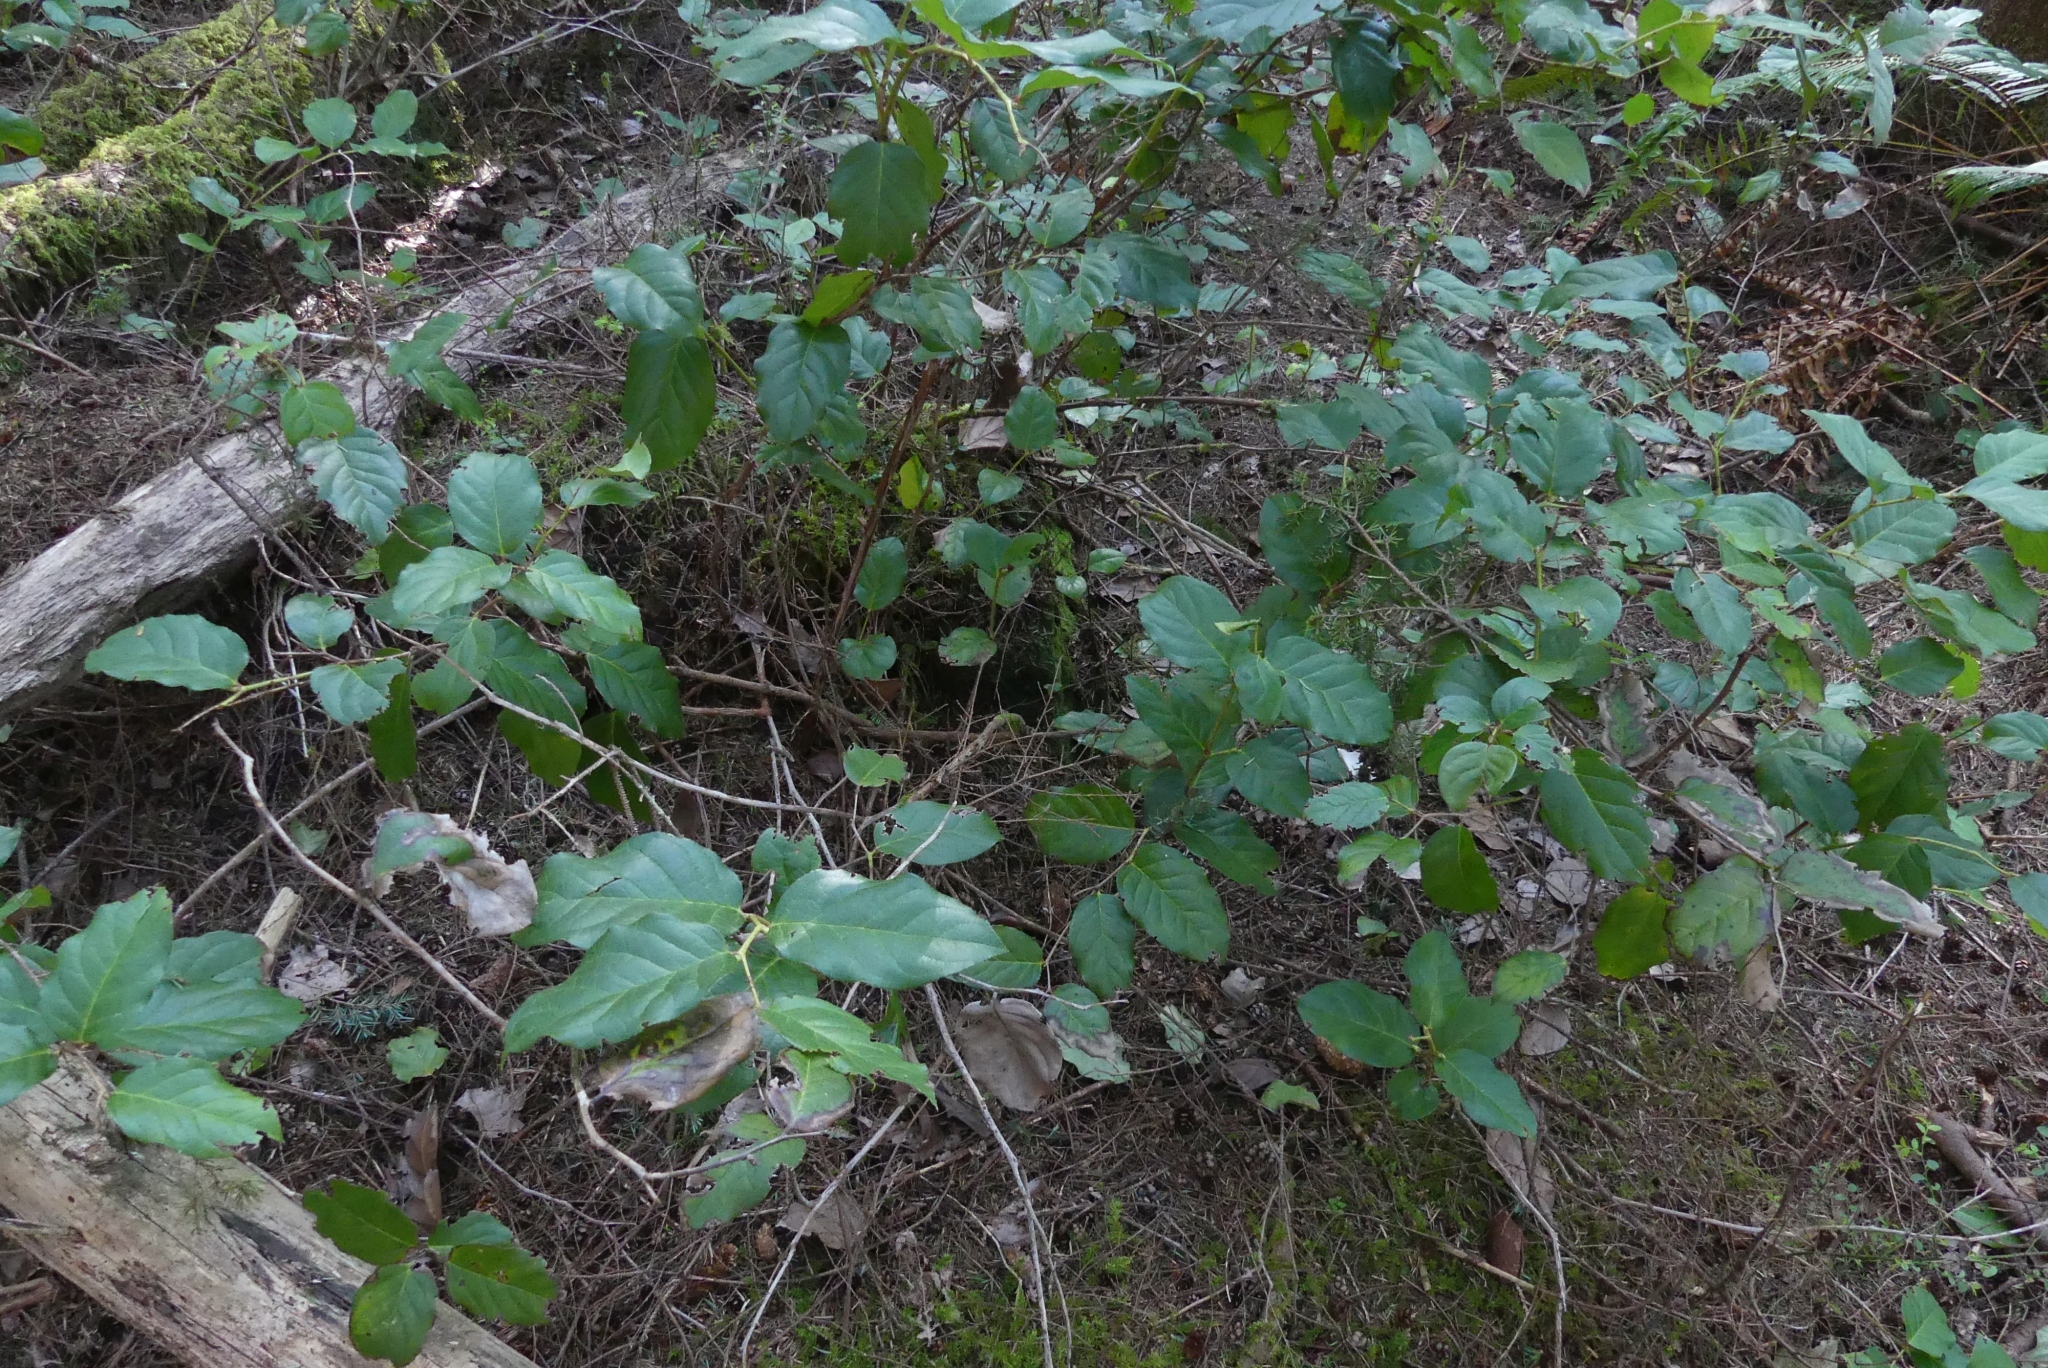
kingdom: Plantae
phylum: Tracheophyta
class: Magnoliopsida
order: Ericales
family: Ericaceae
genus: Gaultheria
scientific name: Gaultheria shallon
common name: Shallon
